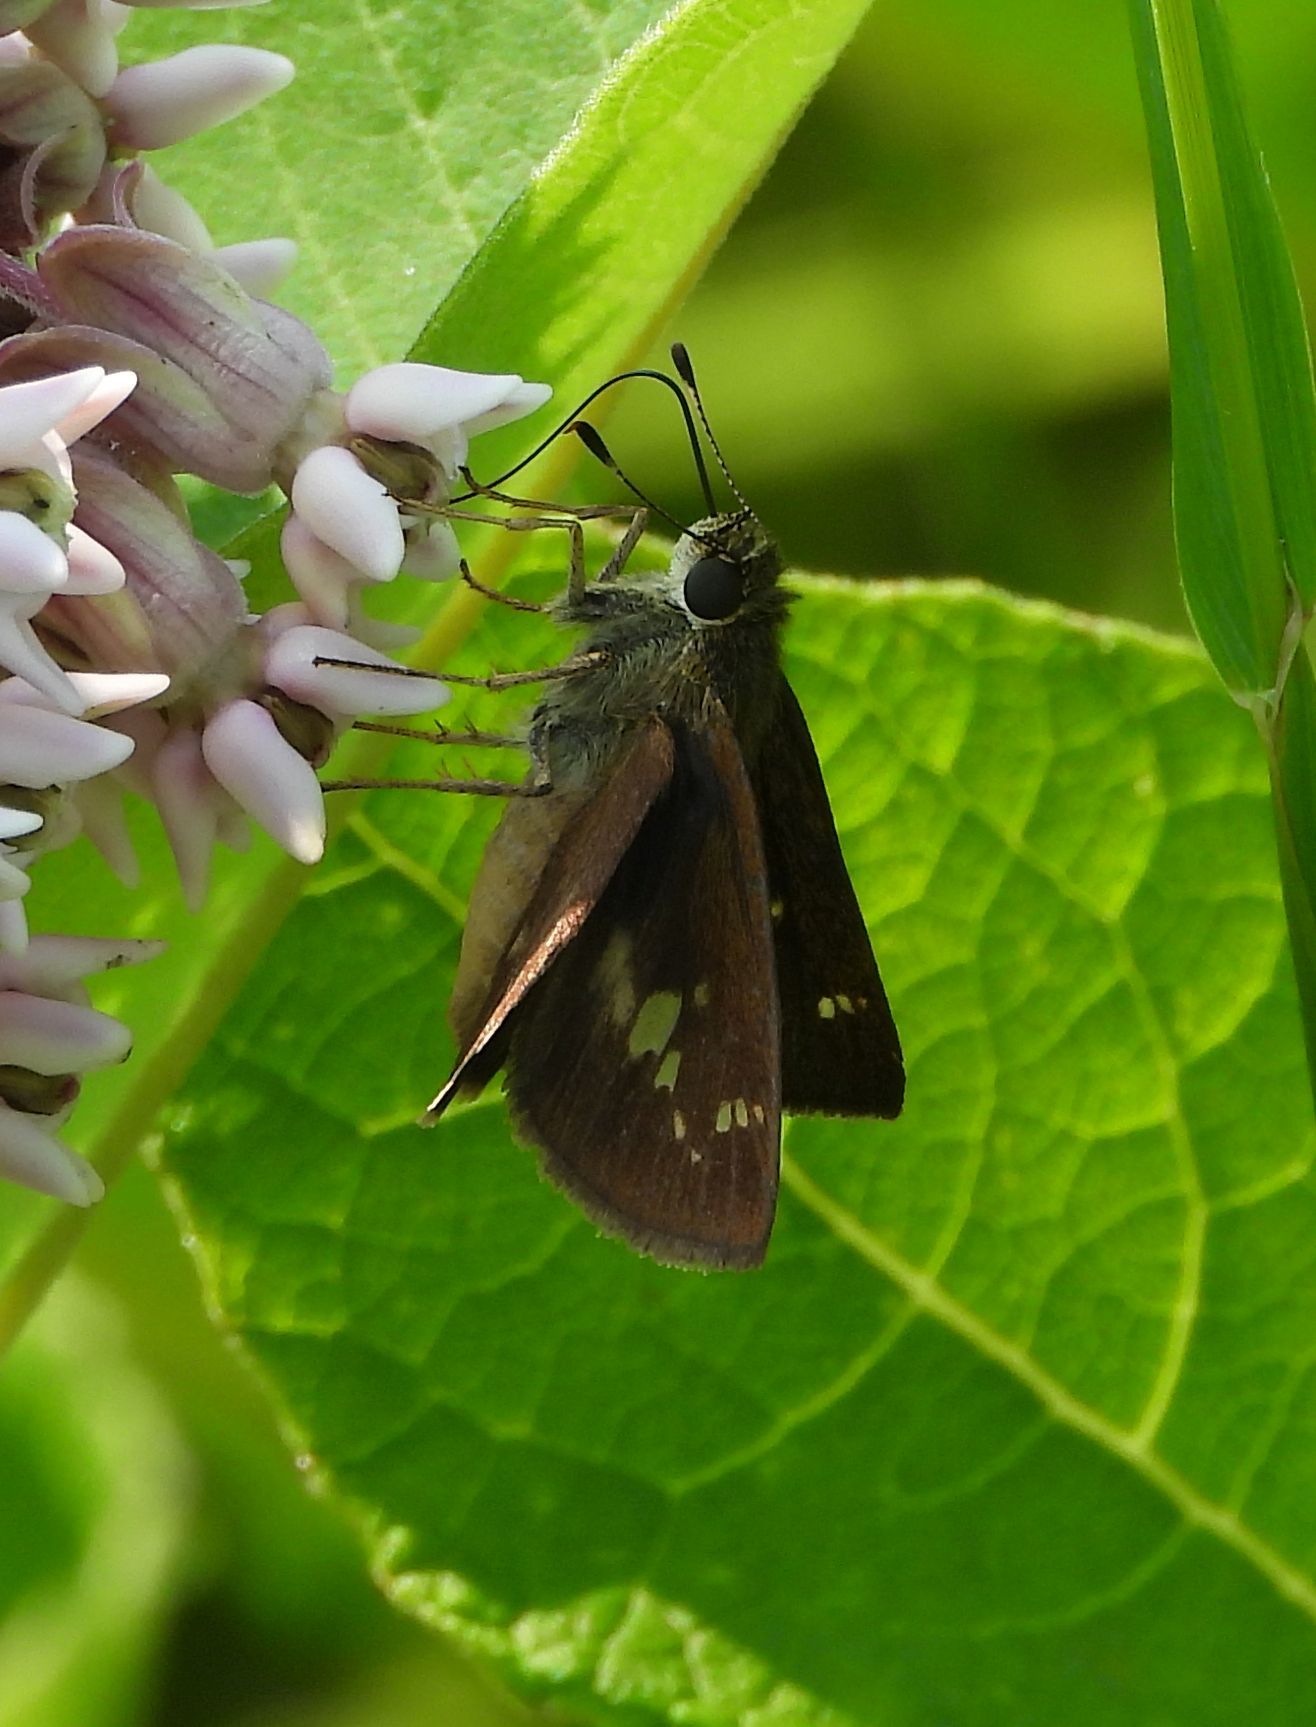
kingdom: Animalia
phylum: Arthropoda
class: Insecta
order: Lepidoptera
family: Hesperiidae
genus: Vernia
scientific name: Vernia verna
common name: Little glassywing
